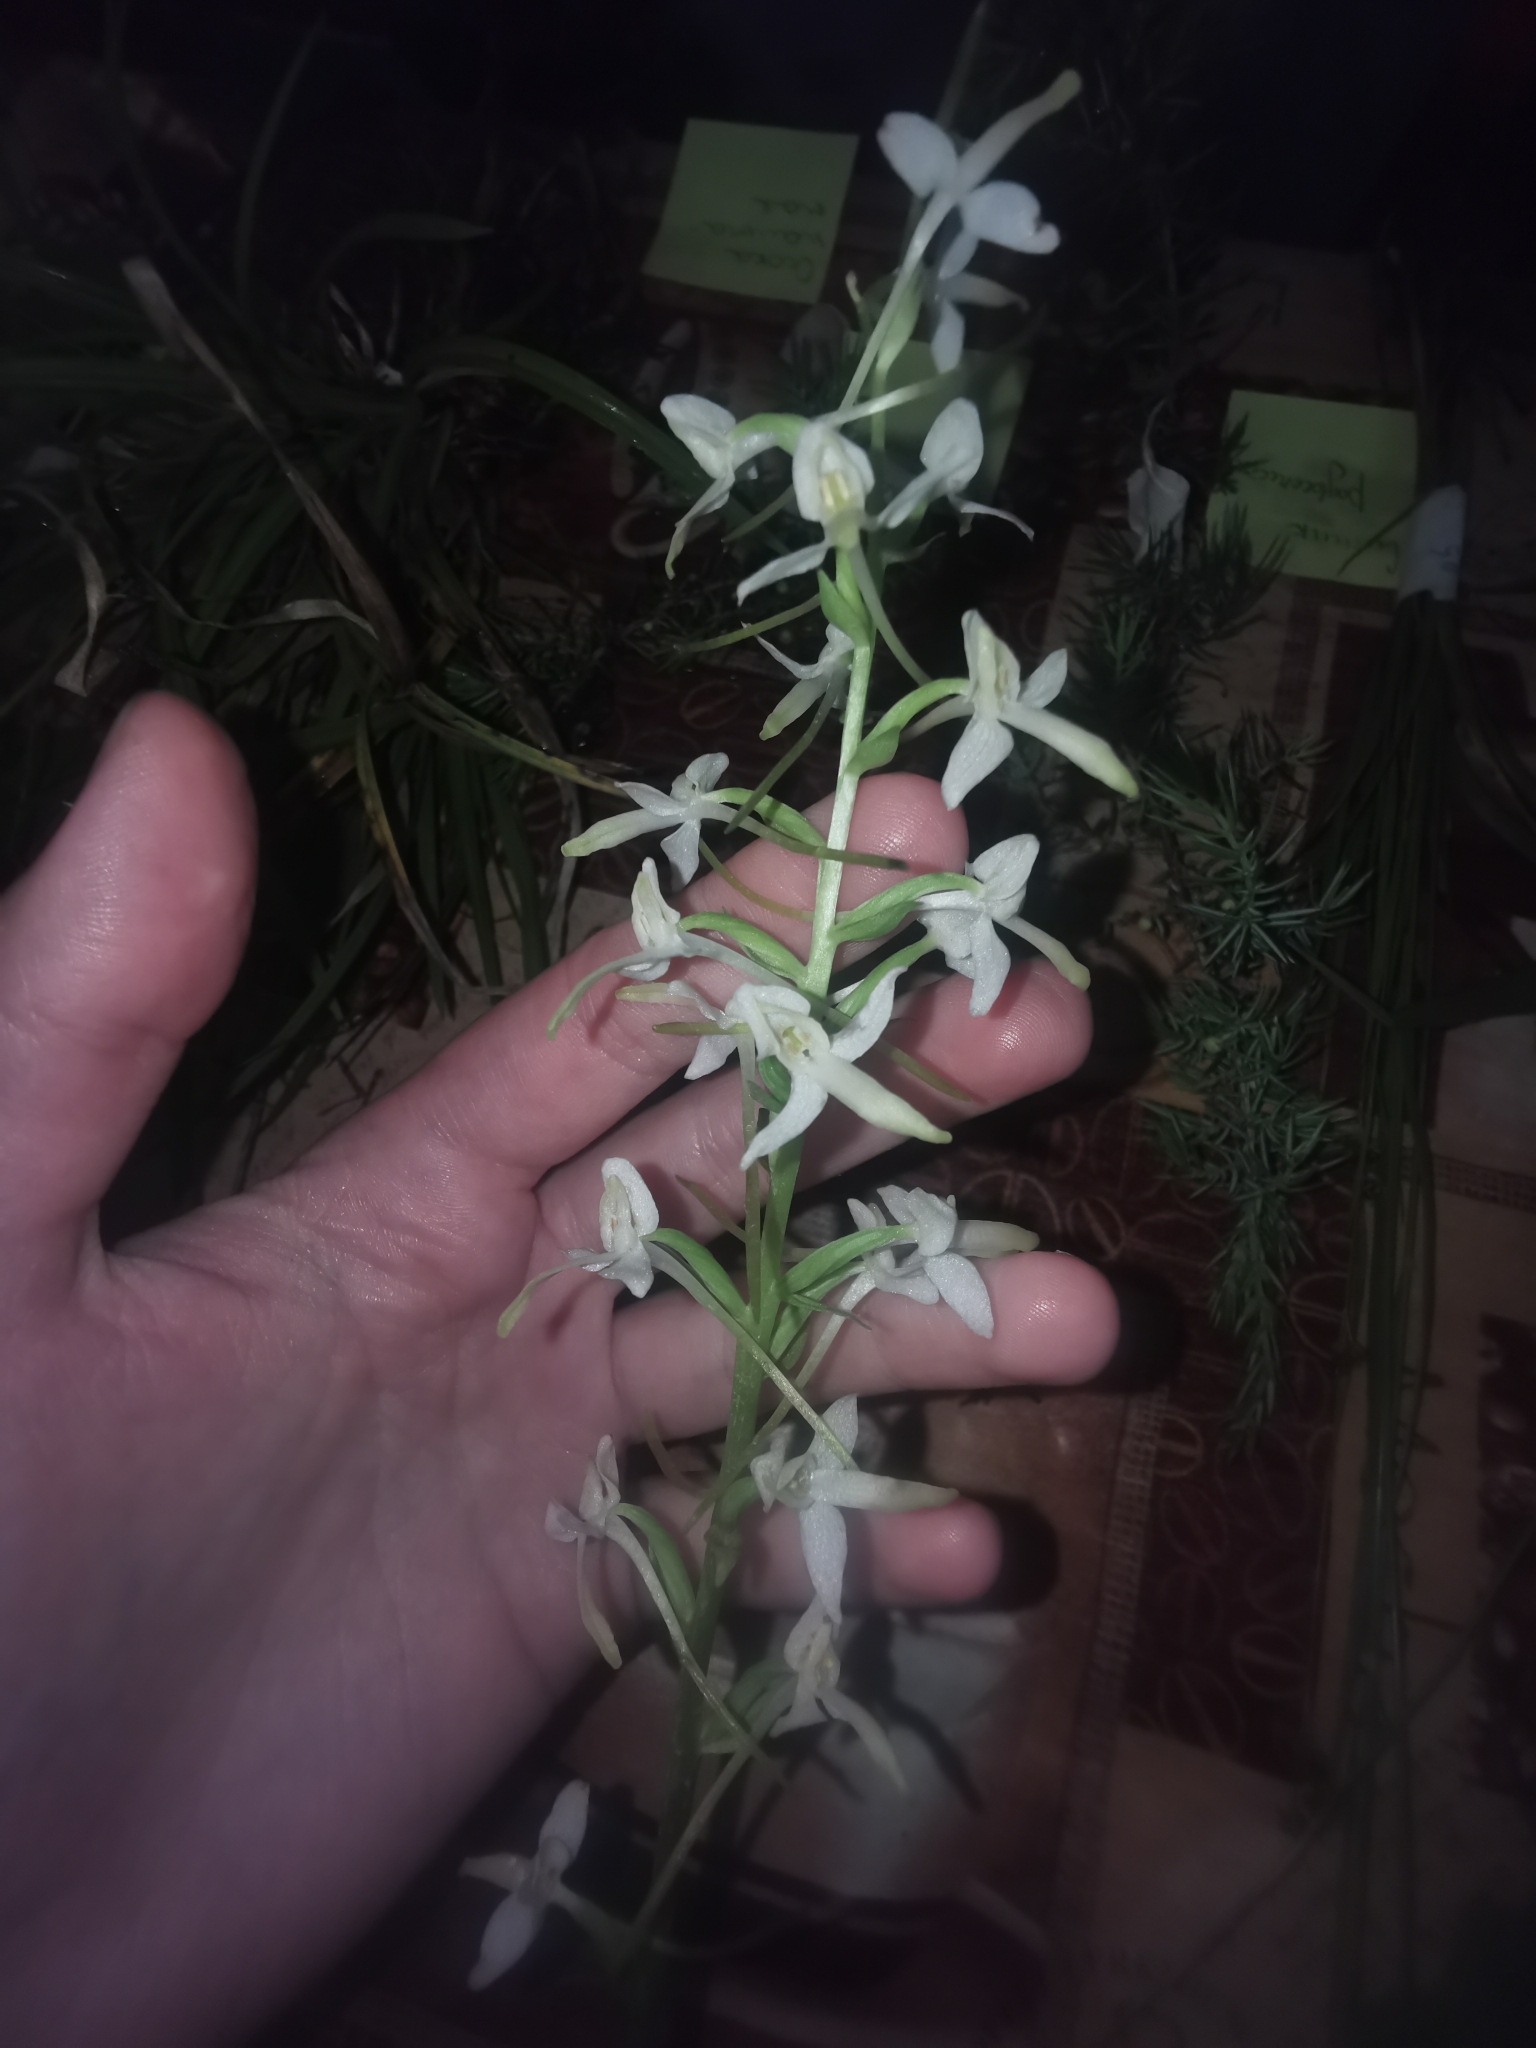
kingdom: Plantae
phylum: Tracheophyta
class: Liliopsida
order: Asparagales
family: Orchidaceae
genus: Platanthera
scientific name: Platanthera bifolia
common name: Lesser butterfly-orchid
